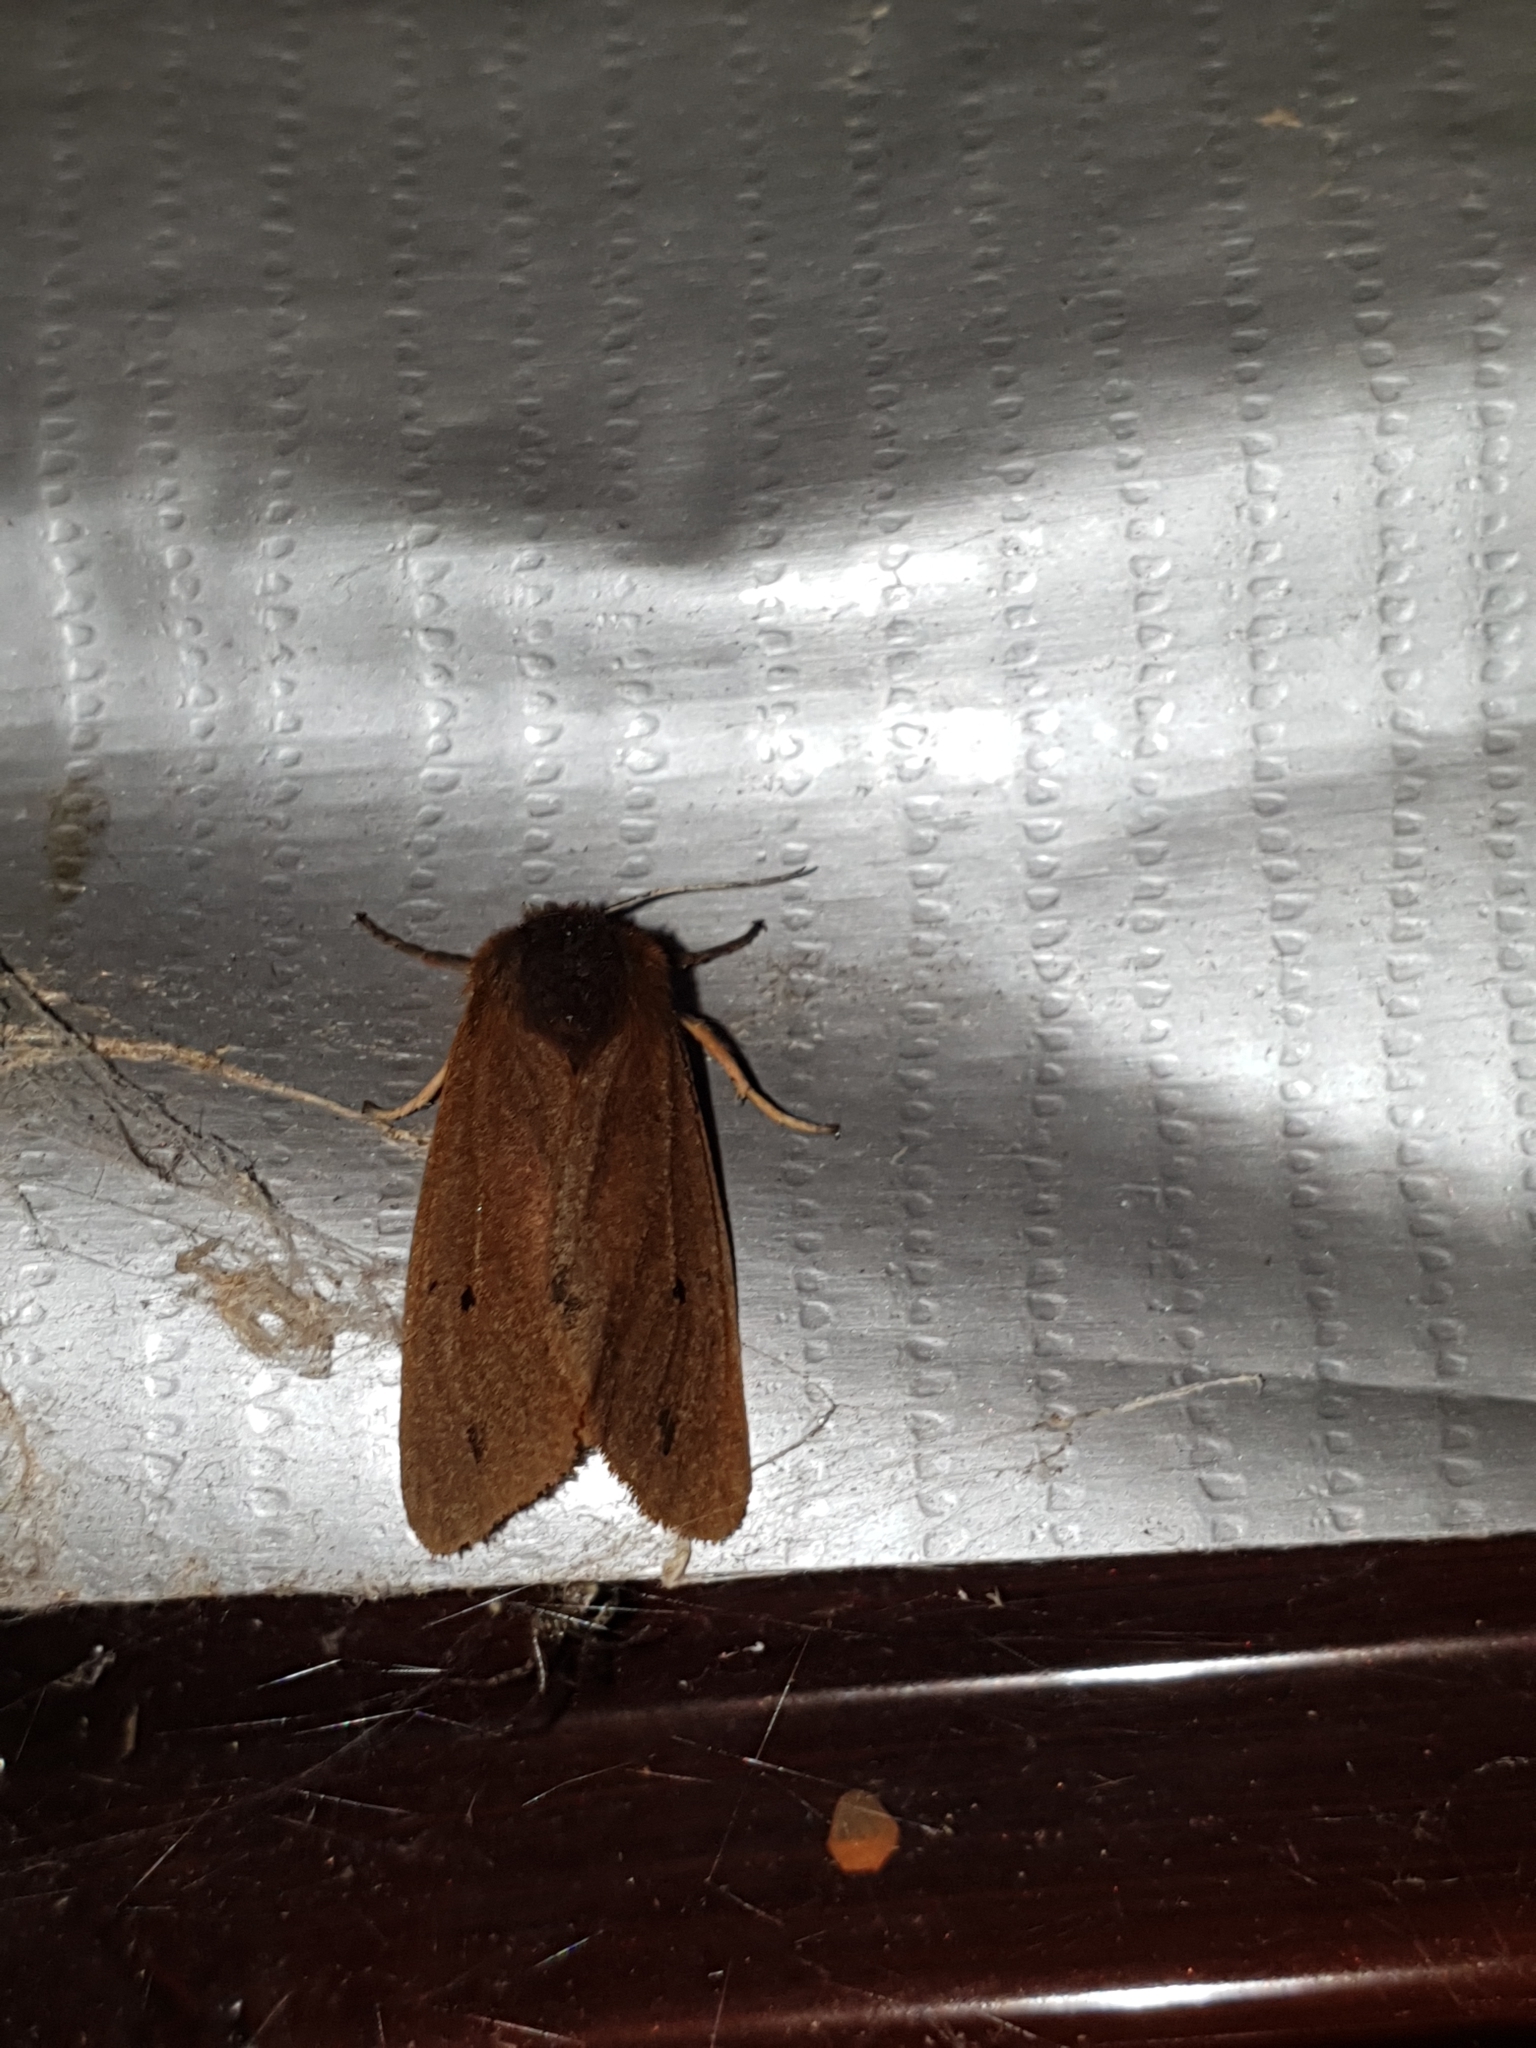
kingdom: Animalia
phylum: Arthropoda
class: Insecta
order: Lepidoptera
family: Erebidae
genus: Phragmatobia
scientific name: Phragmatobia fuliginosa
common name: Ruby tiger
